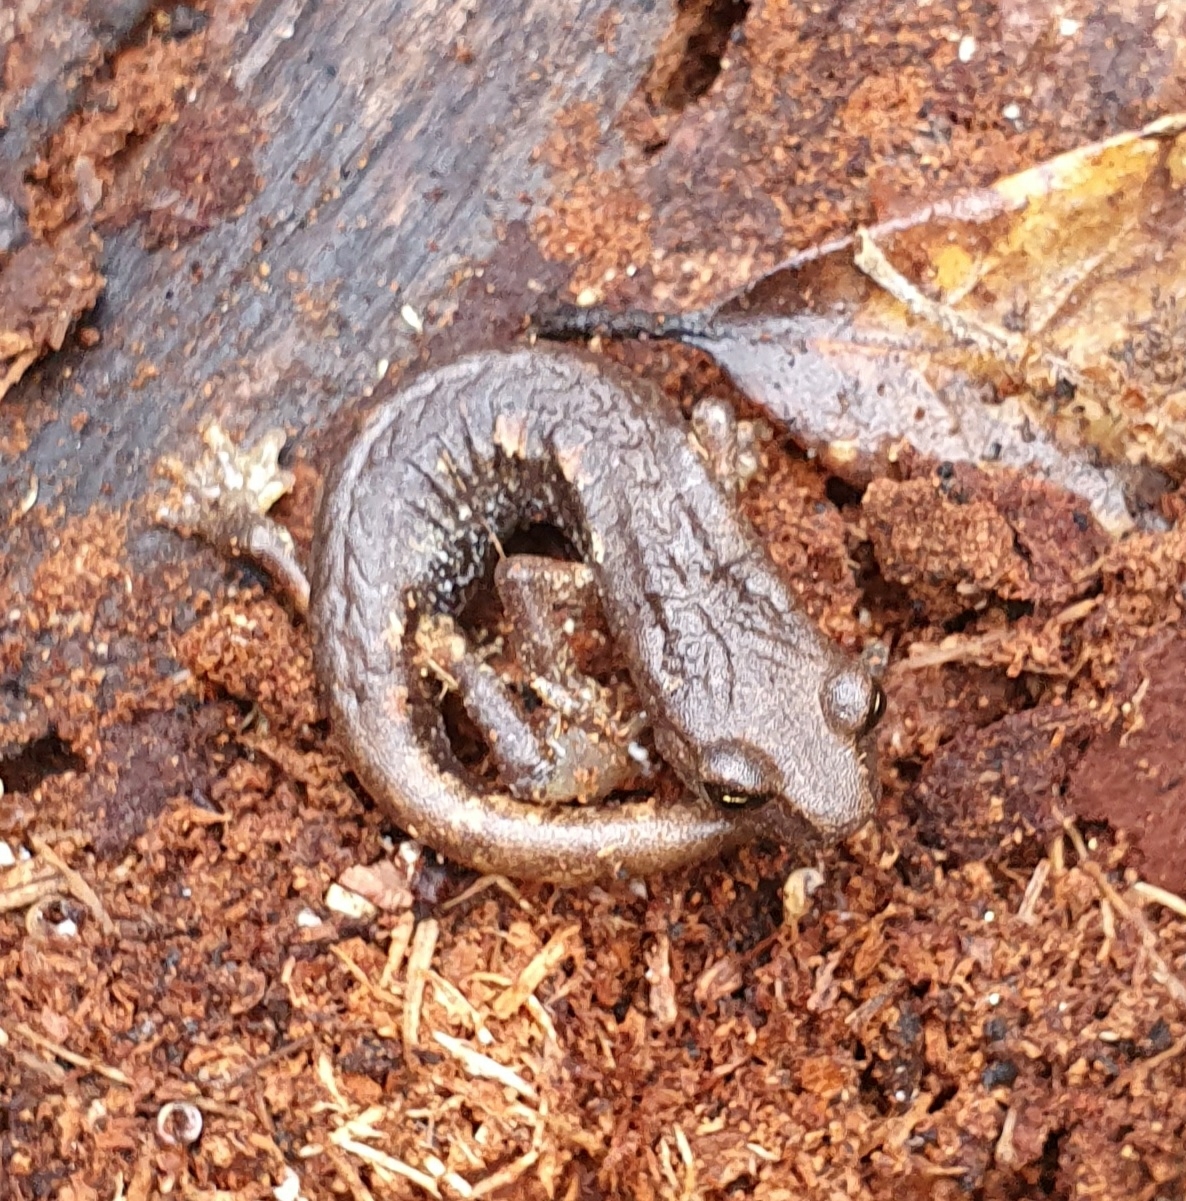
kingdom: Animalia
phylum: Chordata
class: Amphibia
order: Caudata
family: Plethodontidae
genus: Speleomantes
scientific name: Speleomantes ambrosii
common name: Ambrosi's cave salamander
